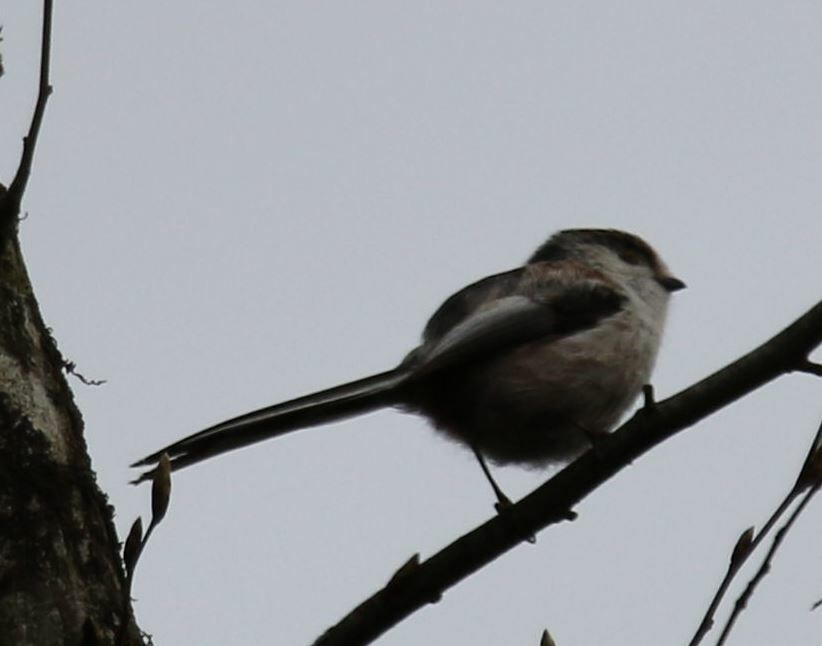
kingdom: Animalia
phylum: Chordata
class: Aves
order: Passeriformes
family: Aegithalidae
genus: Aegithalos
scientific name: Aegithalos caudatus
